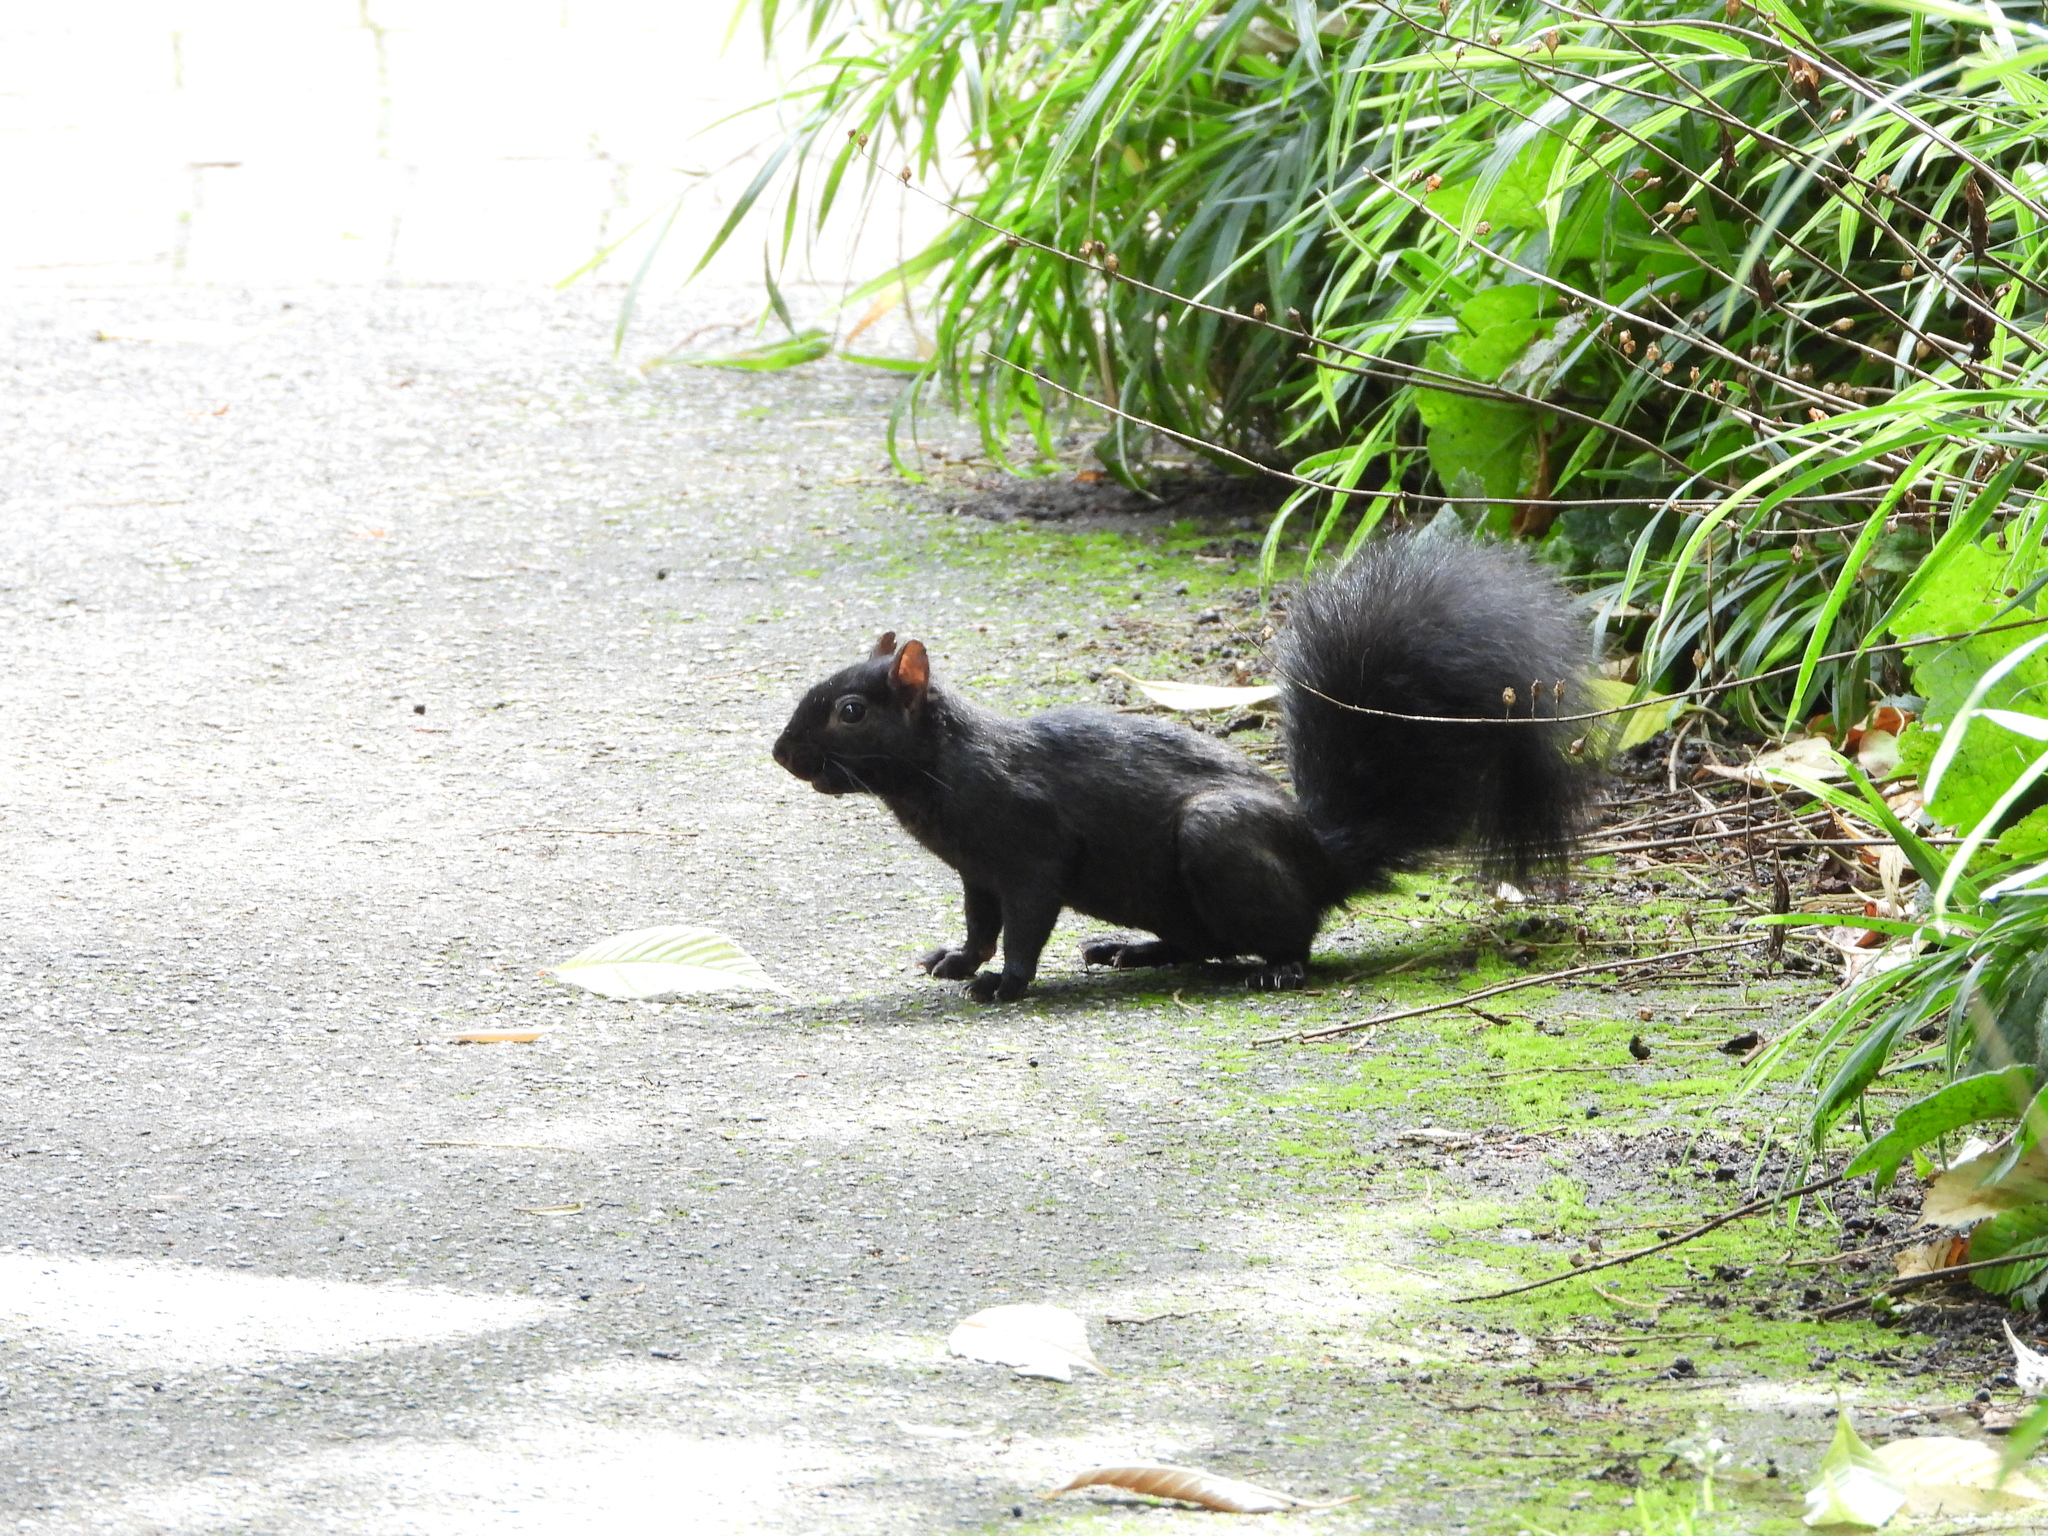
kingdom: Animalia
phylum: Chordata
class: Mammalia
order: Rodentia
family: Sciuridae
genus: Sciurus
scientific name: Sciurus carolinensis
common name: Eastern gray squirrel
